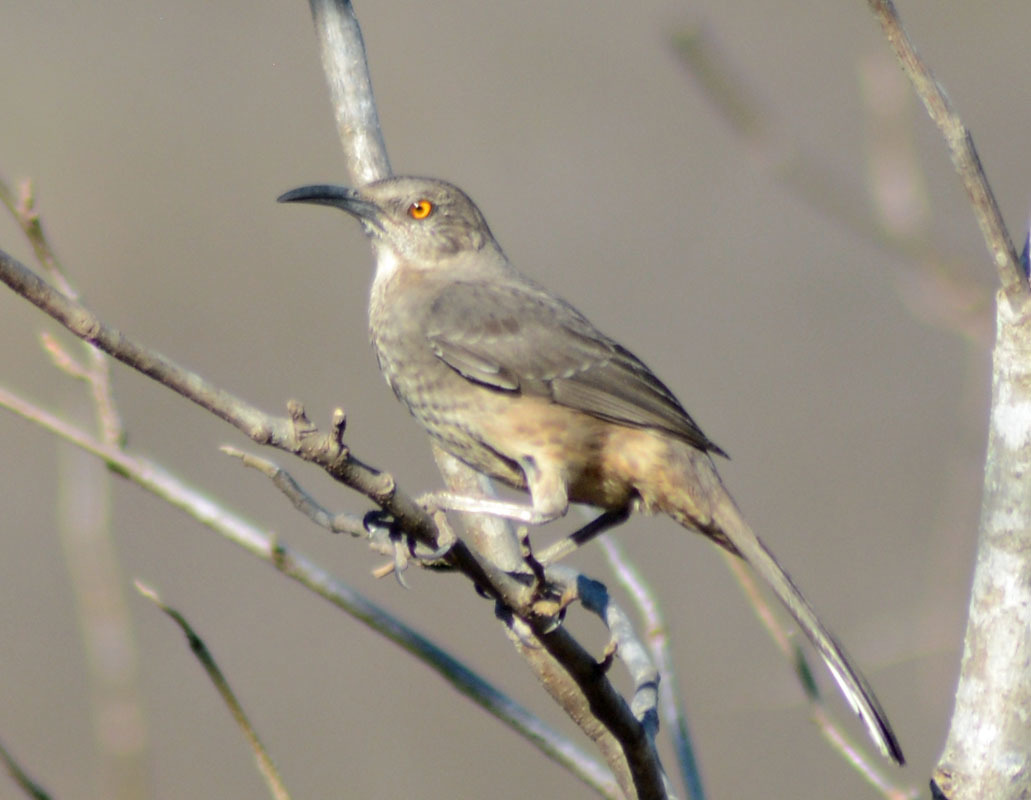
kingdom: Animalia
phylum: Chordata
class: Aves
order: Passeriformes
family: Mimidae
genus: Toxostoma
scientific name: Toxostoma curvirostre
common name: Curve-billed thrasher
